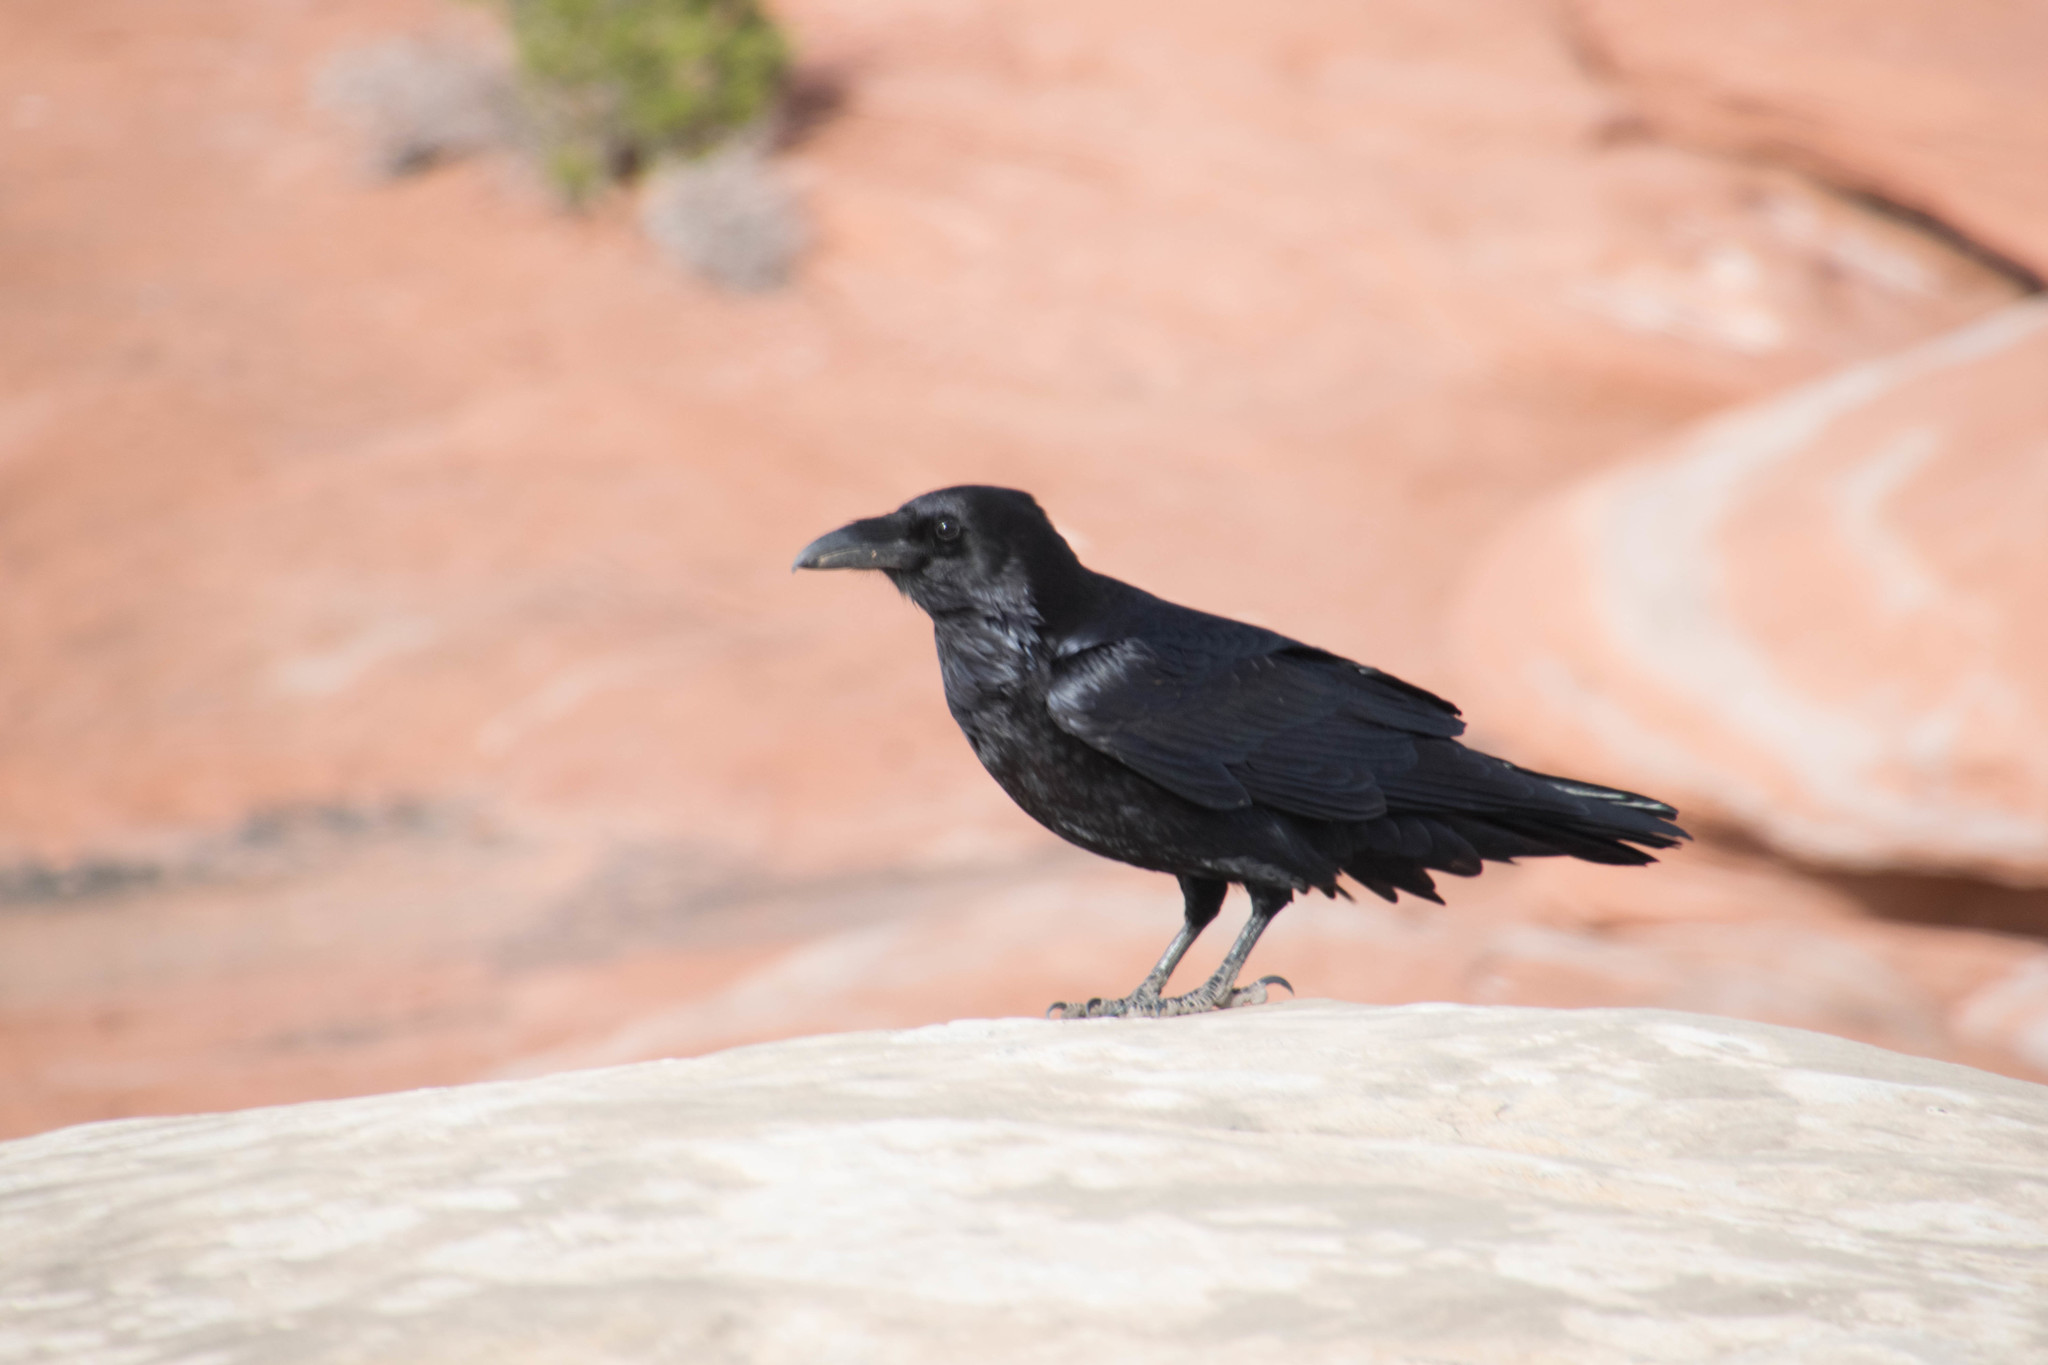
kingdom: Animalia
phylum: Chordata
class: Aves
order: Passeriformes
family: Corvidae
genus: Corvus
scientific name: Corvus corax
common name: Common raven
